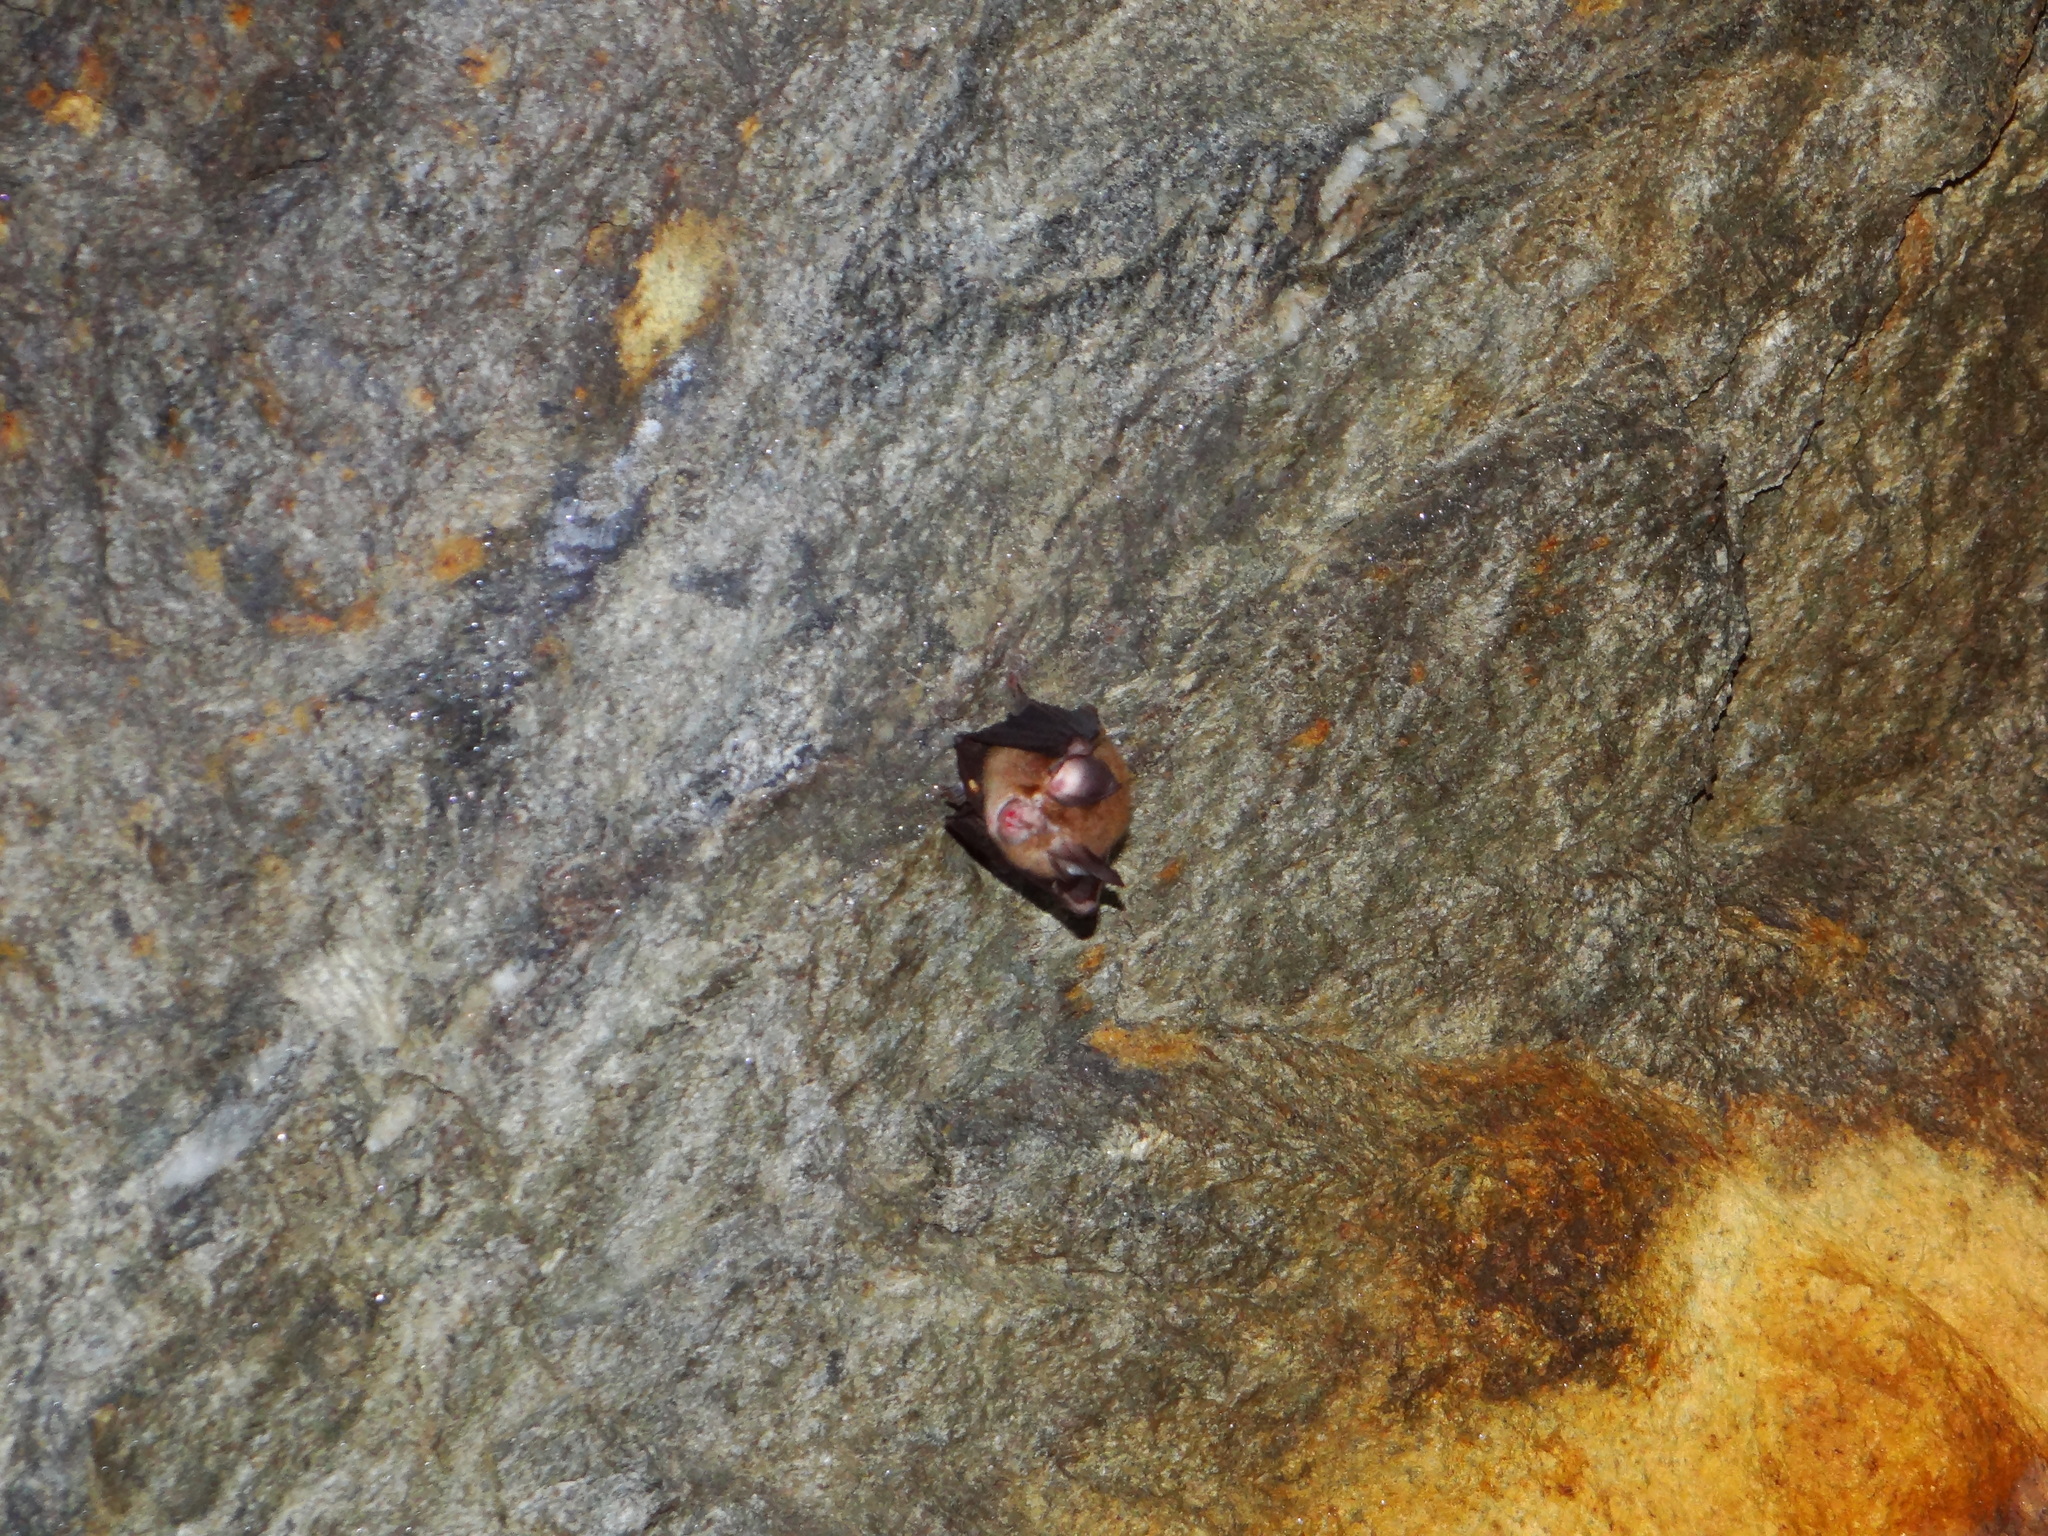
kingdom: Animalia
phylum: Chordata
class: Mammalia
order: Chiroptera
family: Rhinolophidae
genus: Rhinolophus
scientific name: Rhinolophus monoceros
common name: Formosan lesser horseshoe bat
